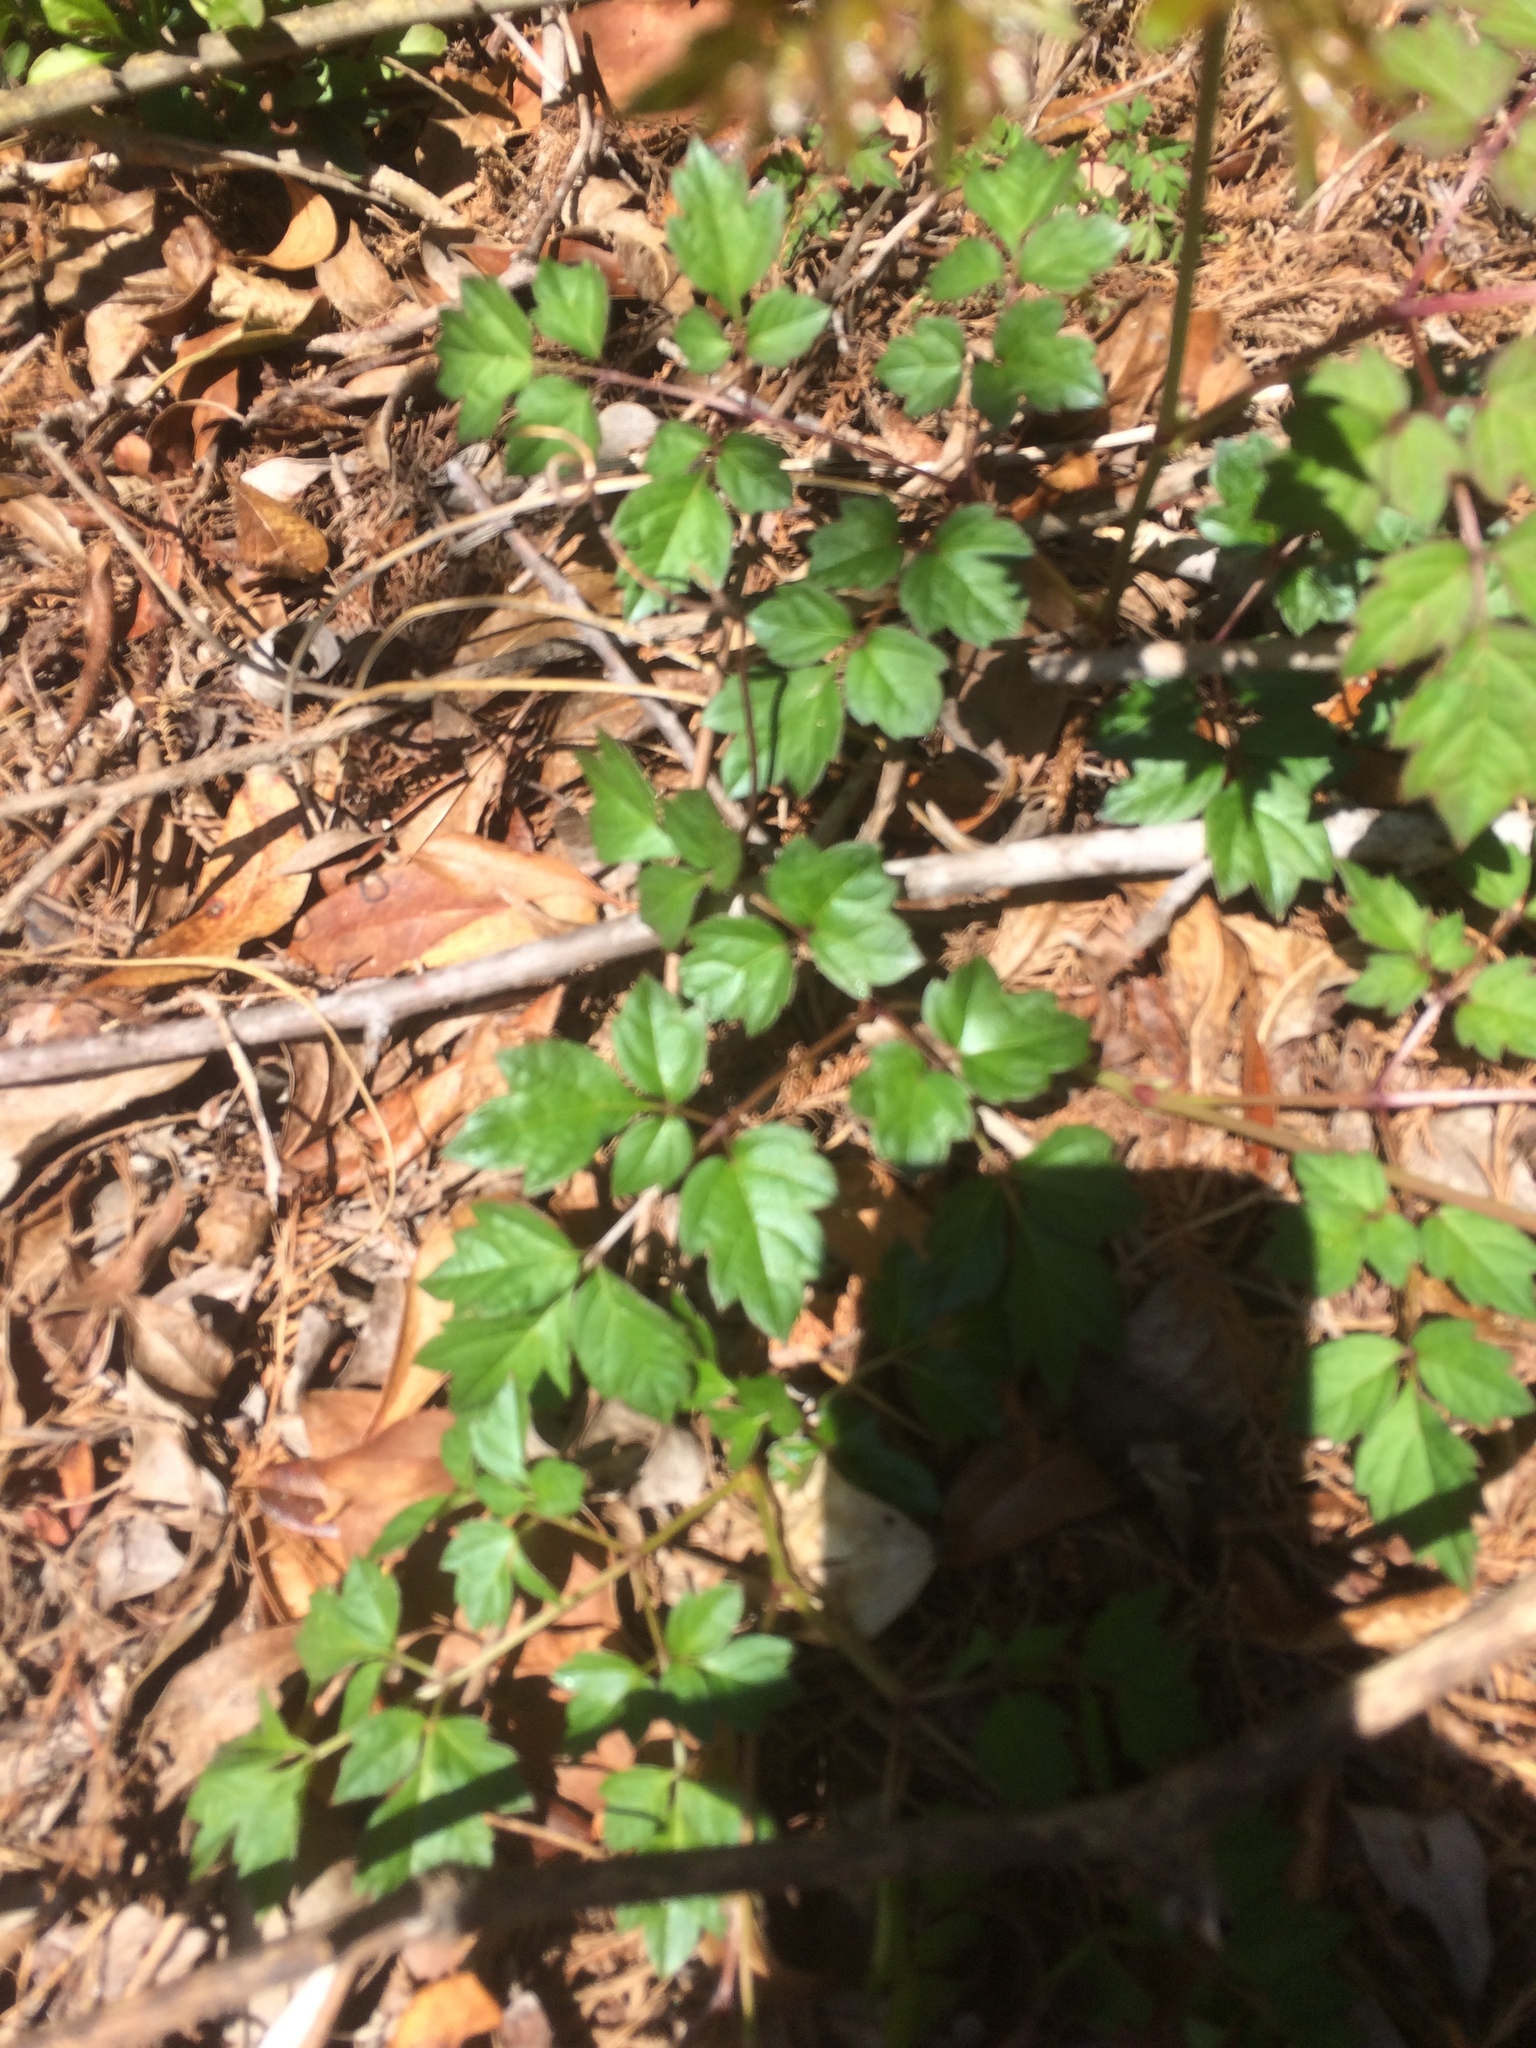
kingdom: Plantae
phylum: Tracheophyta
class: Magnoliopsida
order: Vitales
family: Vitaceae
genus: Nekemias
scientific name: Nekemias arborea
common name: Peppervine
